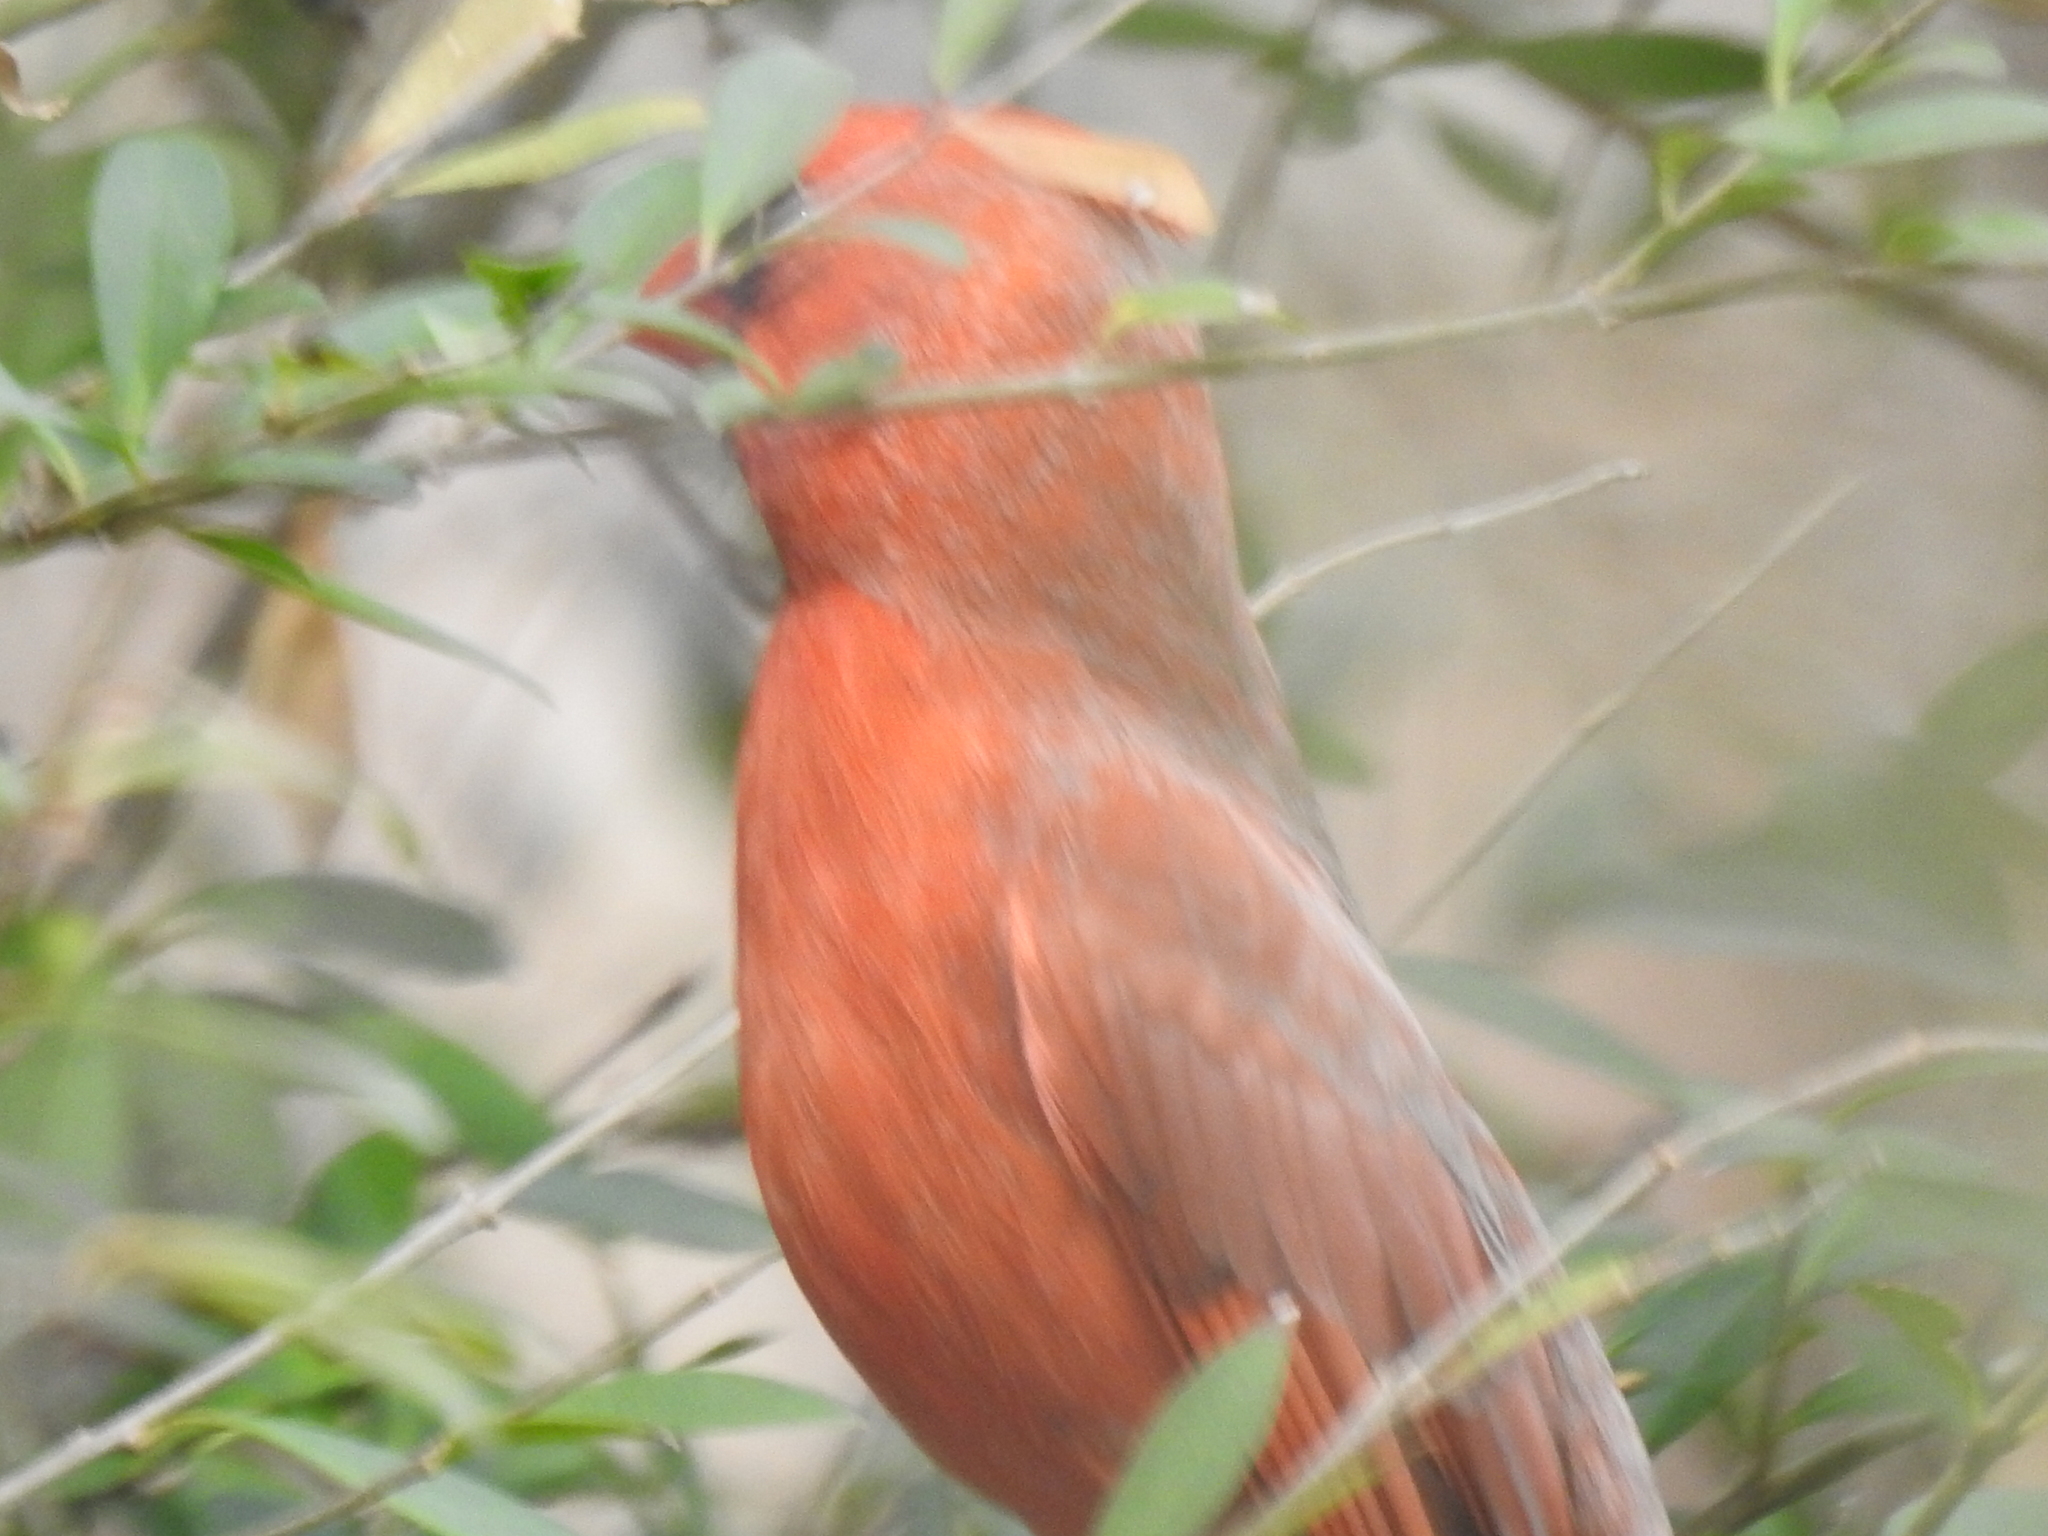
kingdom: Animalia
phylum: Chordata
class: Aves
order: Passeriformes
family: Cardinalidae
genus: Cardinalis
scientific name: Cardinalis cardinalis
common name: Northern cardinal
